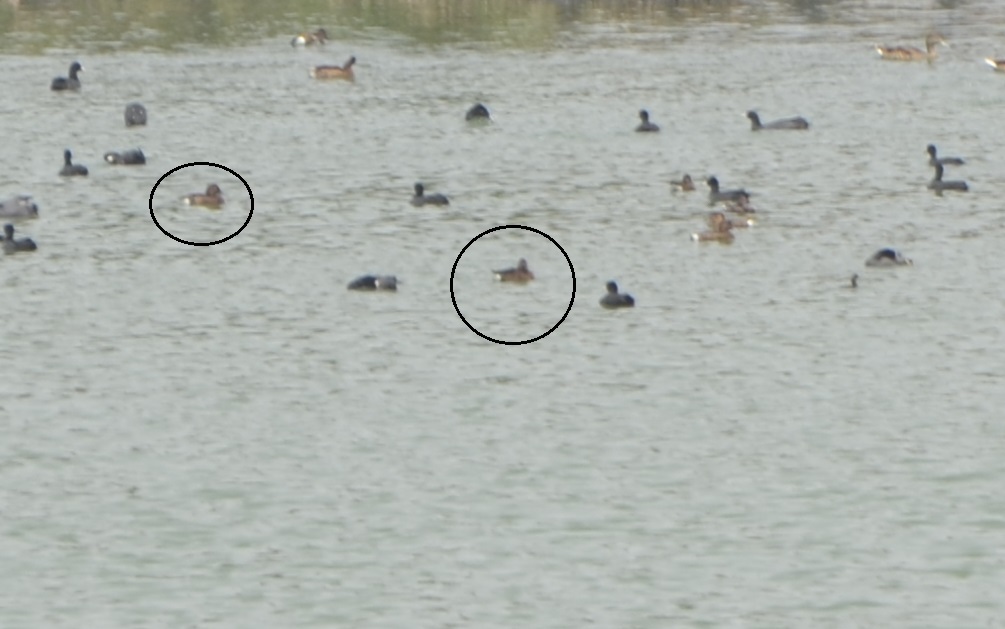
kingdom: Animalia
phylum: Chordata
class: Aves
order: Anseriformes
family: Anatidae
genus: Aythya
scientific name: Aythya nyroca
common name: Ferruginous duck
